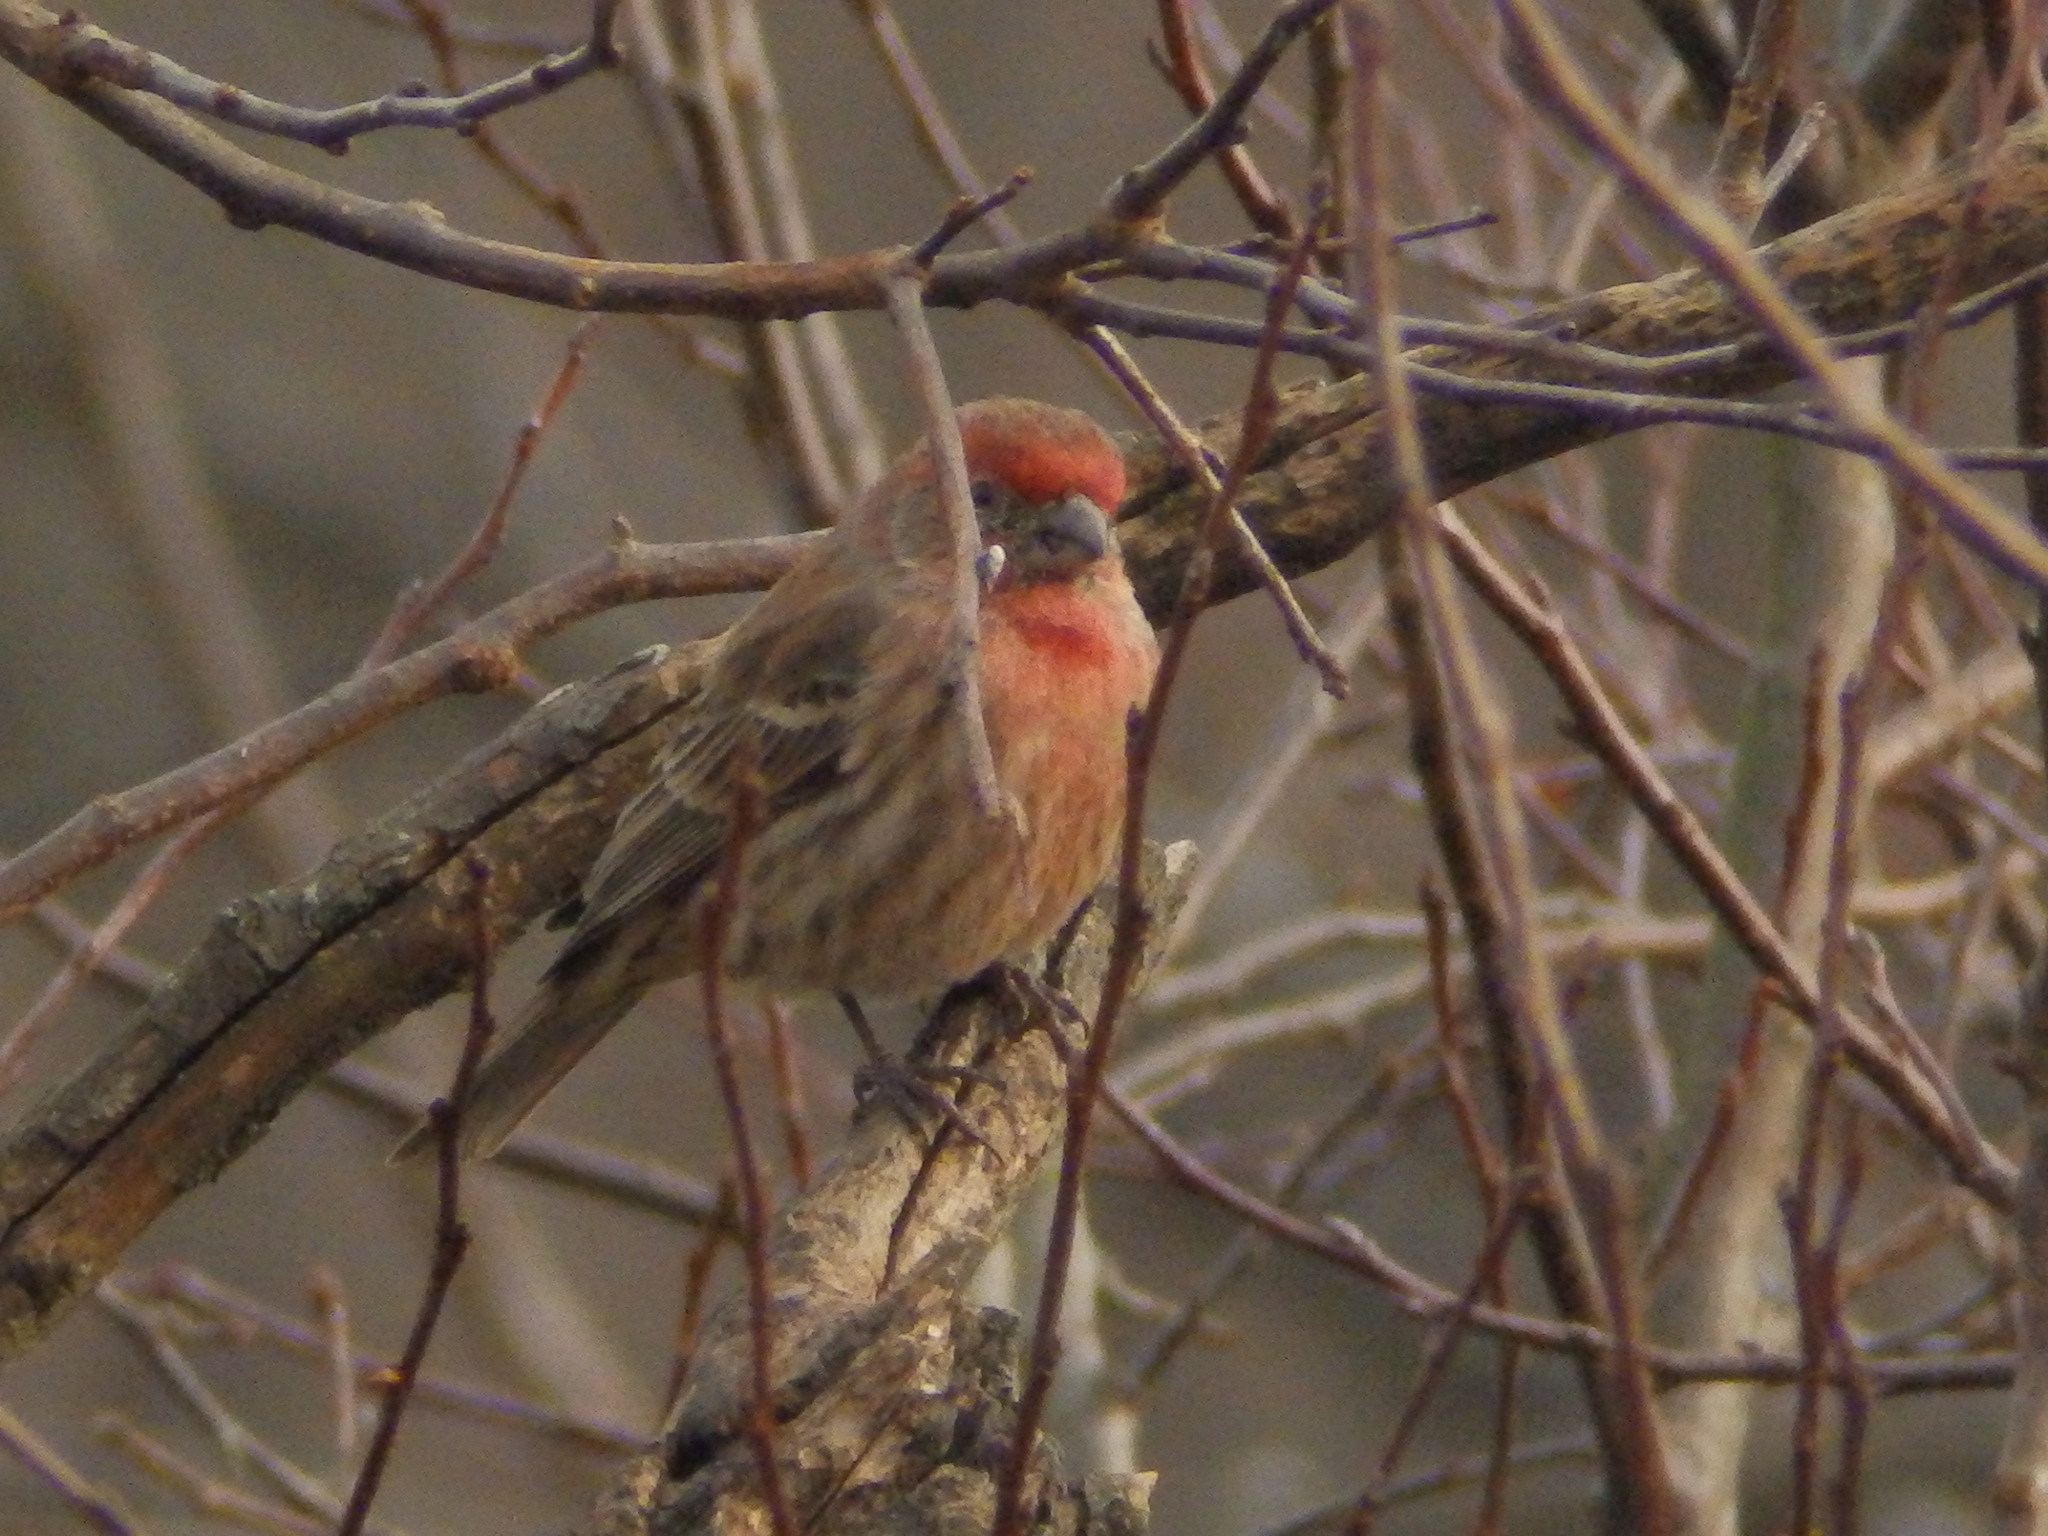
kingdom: Animalia
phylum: Chordata
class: Aves
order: Passeriformes
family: Fringillidae
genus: Haemorhous
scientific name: Haemorhous mexicanus
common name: House finch
